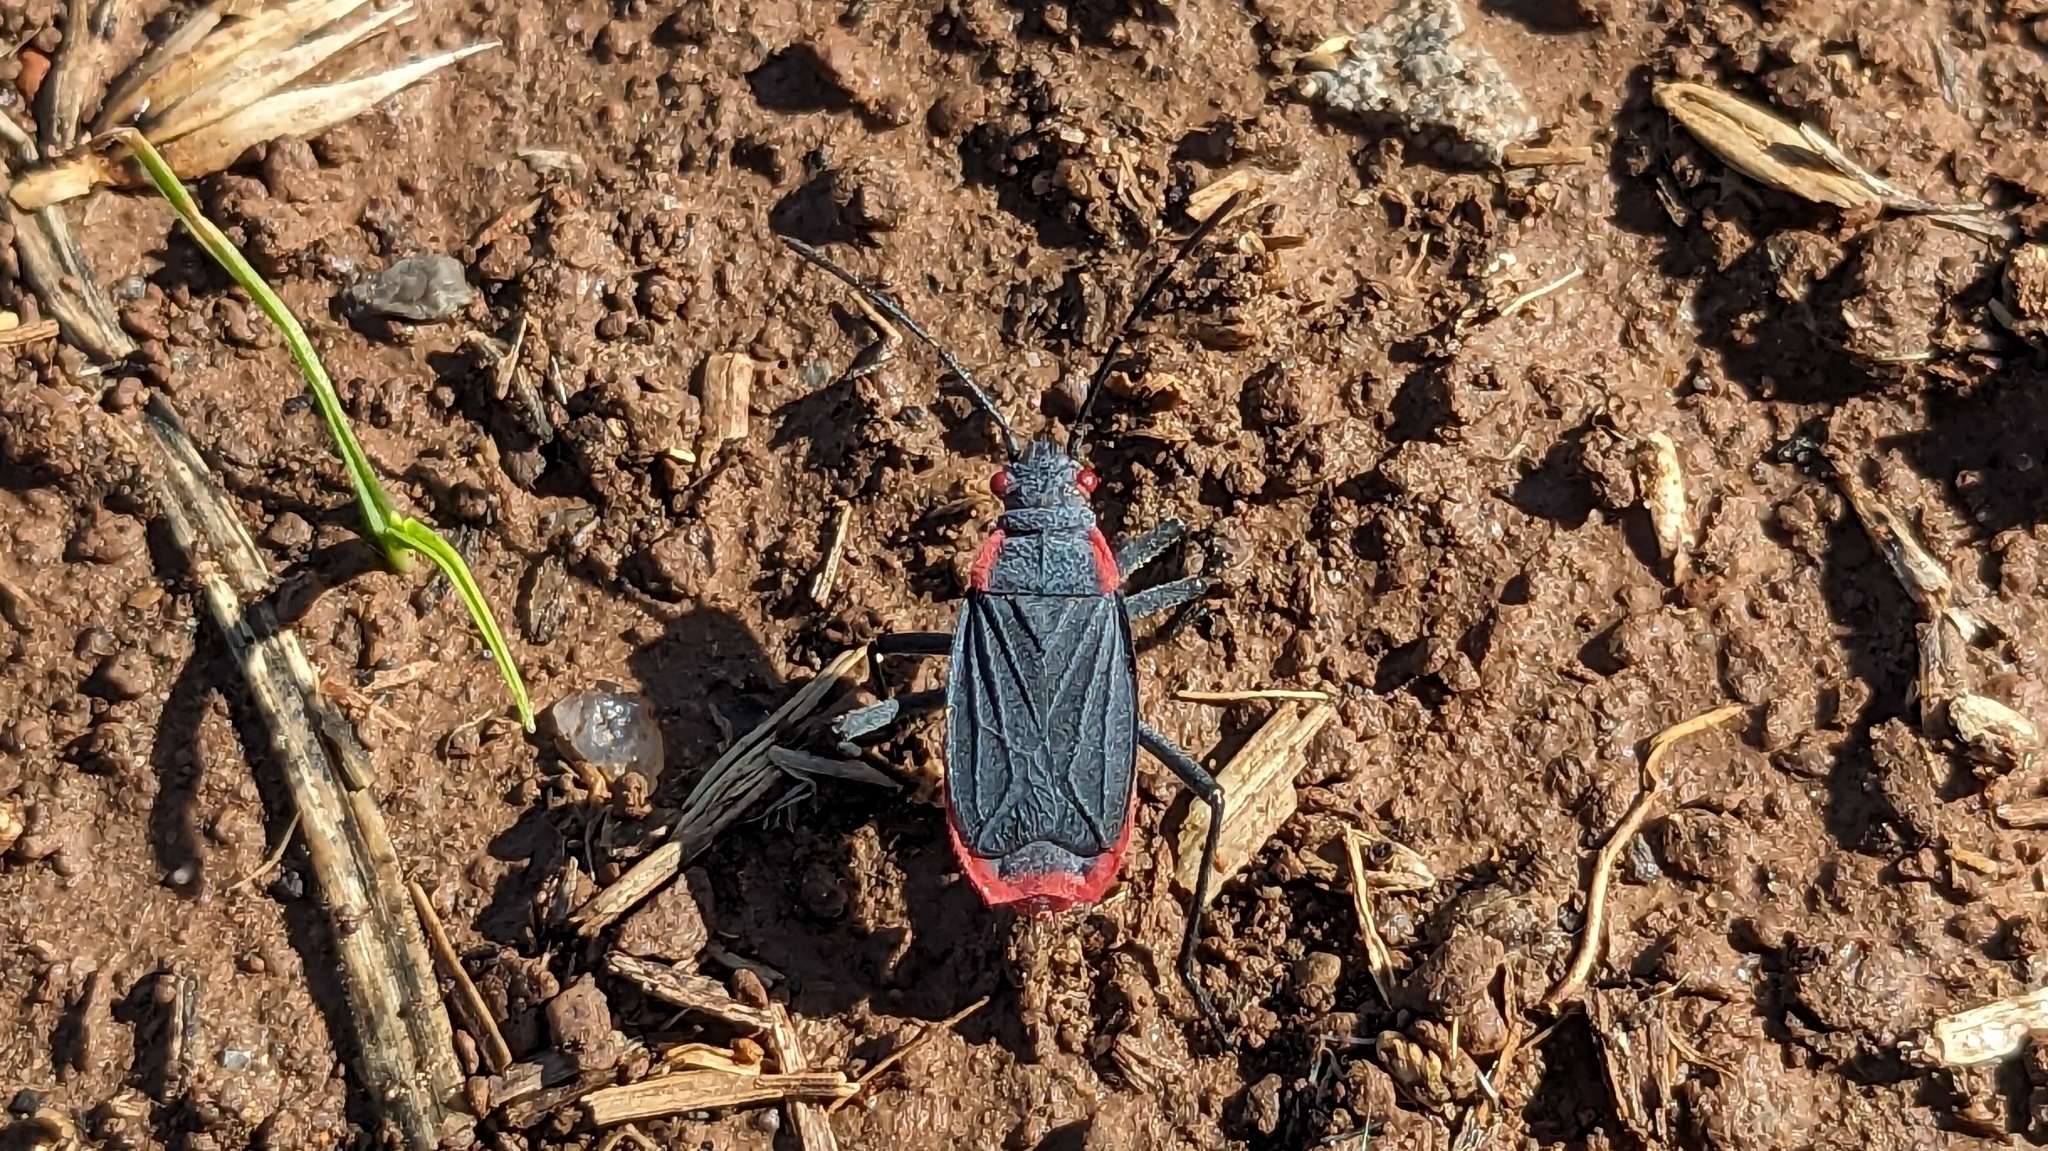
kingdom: Animalia
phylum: Arthropoda
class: Insecta
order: Hemiptera
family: Rhopalidae
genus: Jadera
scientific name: Jadera haematoloma
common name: Red-shouldered bug
